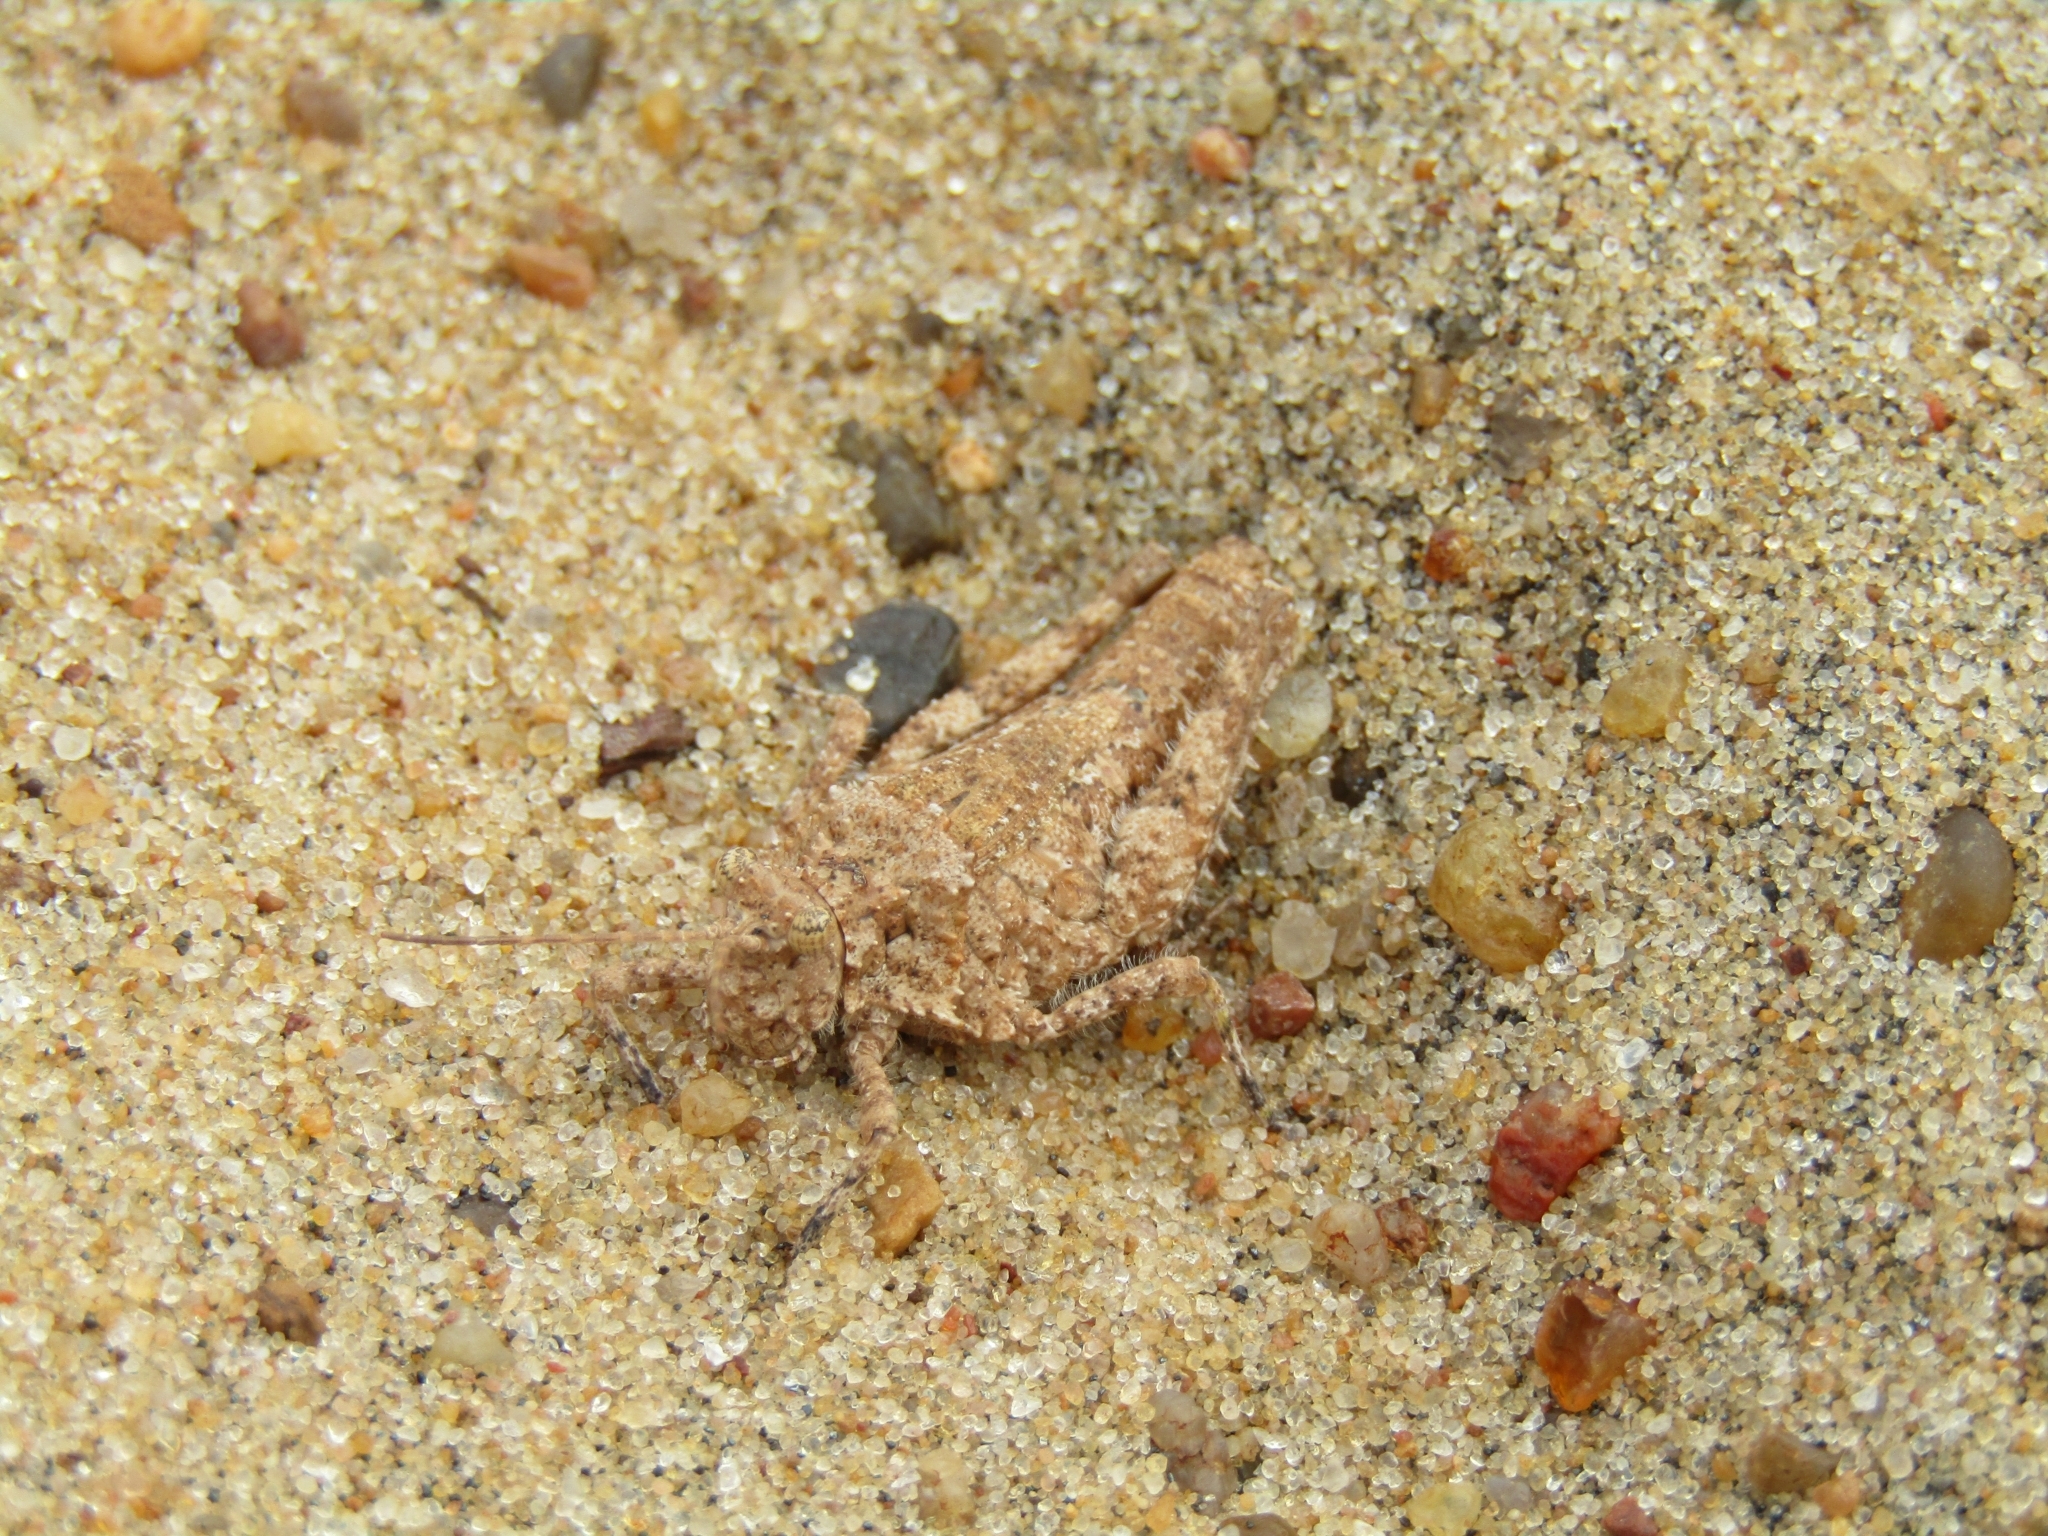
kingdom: Animalia
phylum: Arthropoda
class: Insecta
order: Orthoptera
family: Ommexechidae
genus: Ommexecha
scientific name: Ommexecha virens
